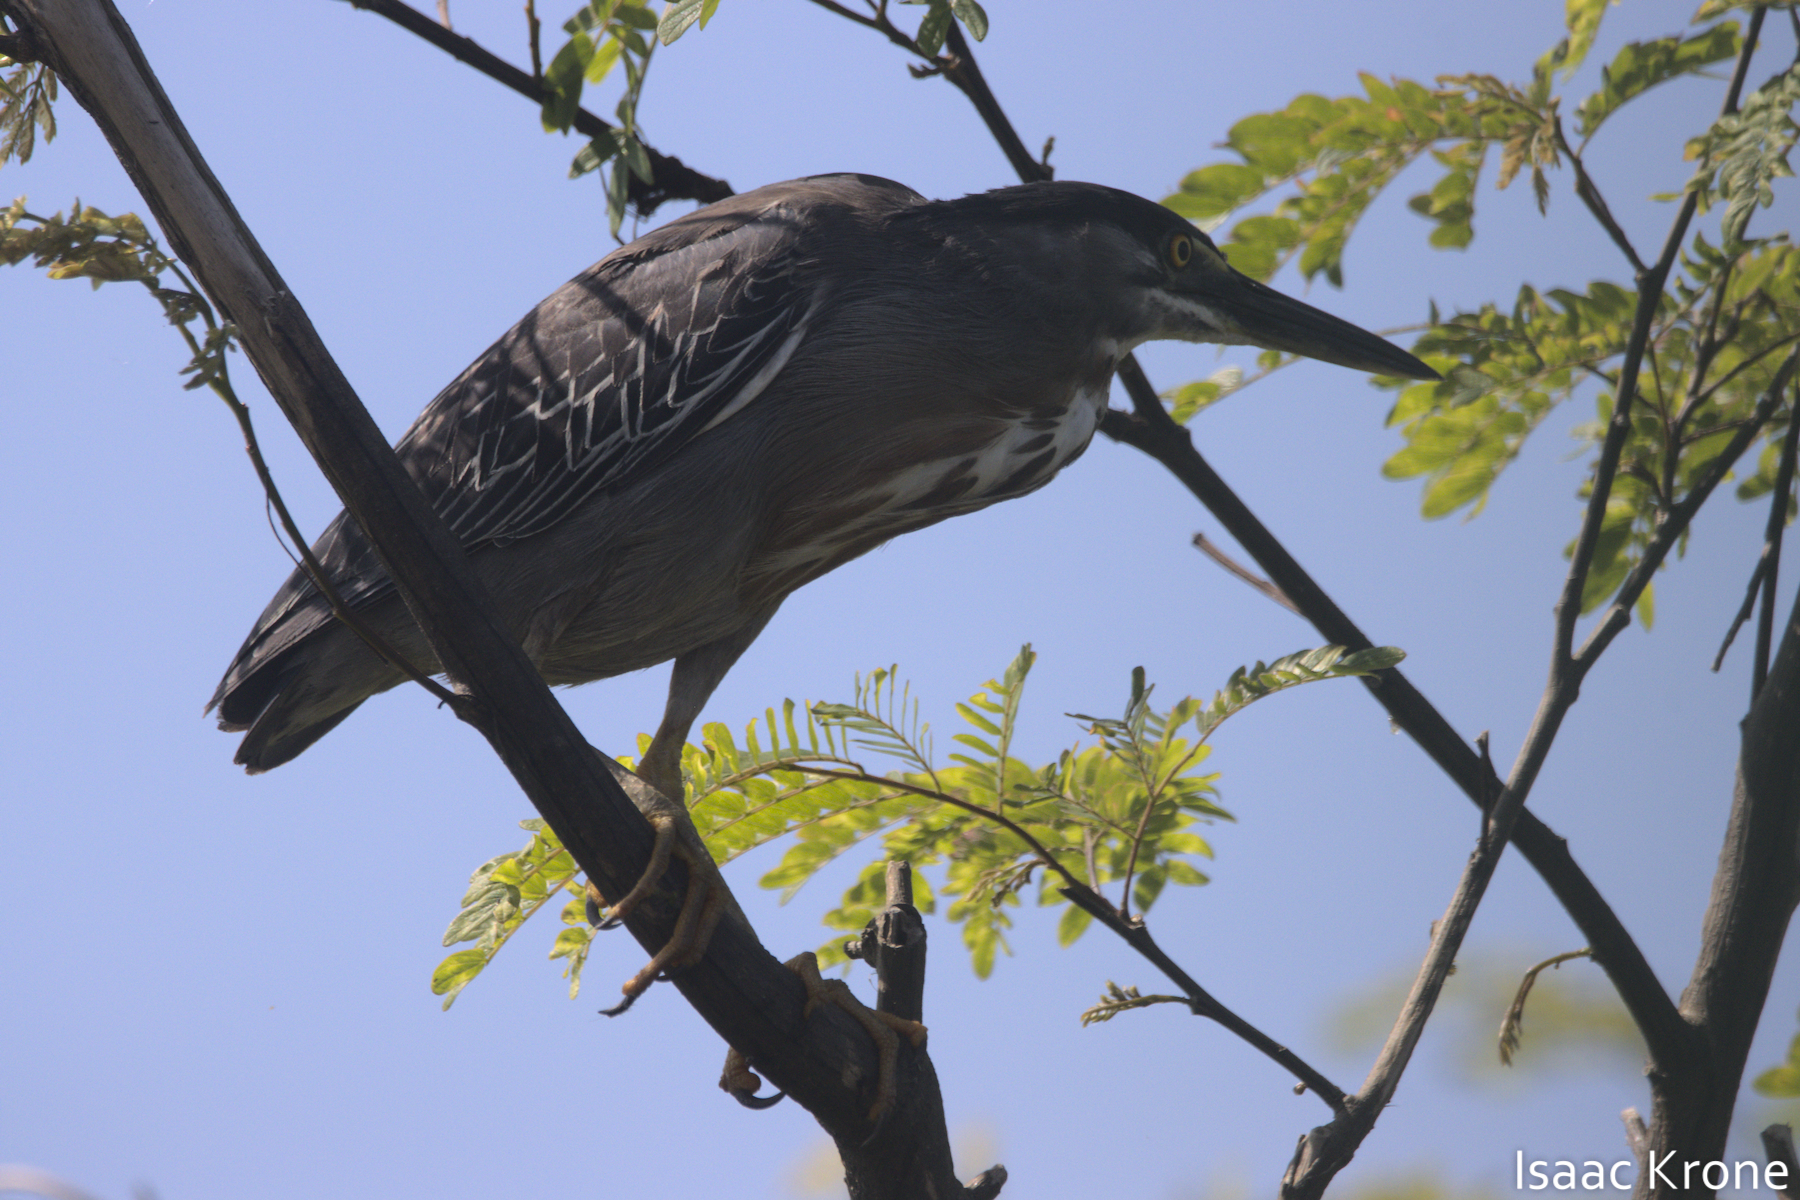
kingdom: Animalia
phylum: Chordata
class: Aves
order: Pelecaniformes
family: Ardeidae
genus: Butorides
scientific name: Butorides striata
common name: Striated heron
